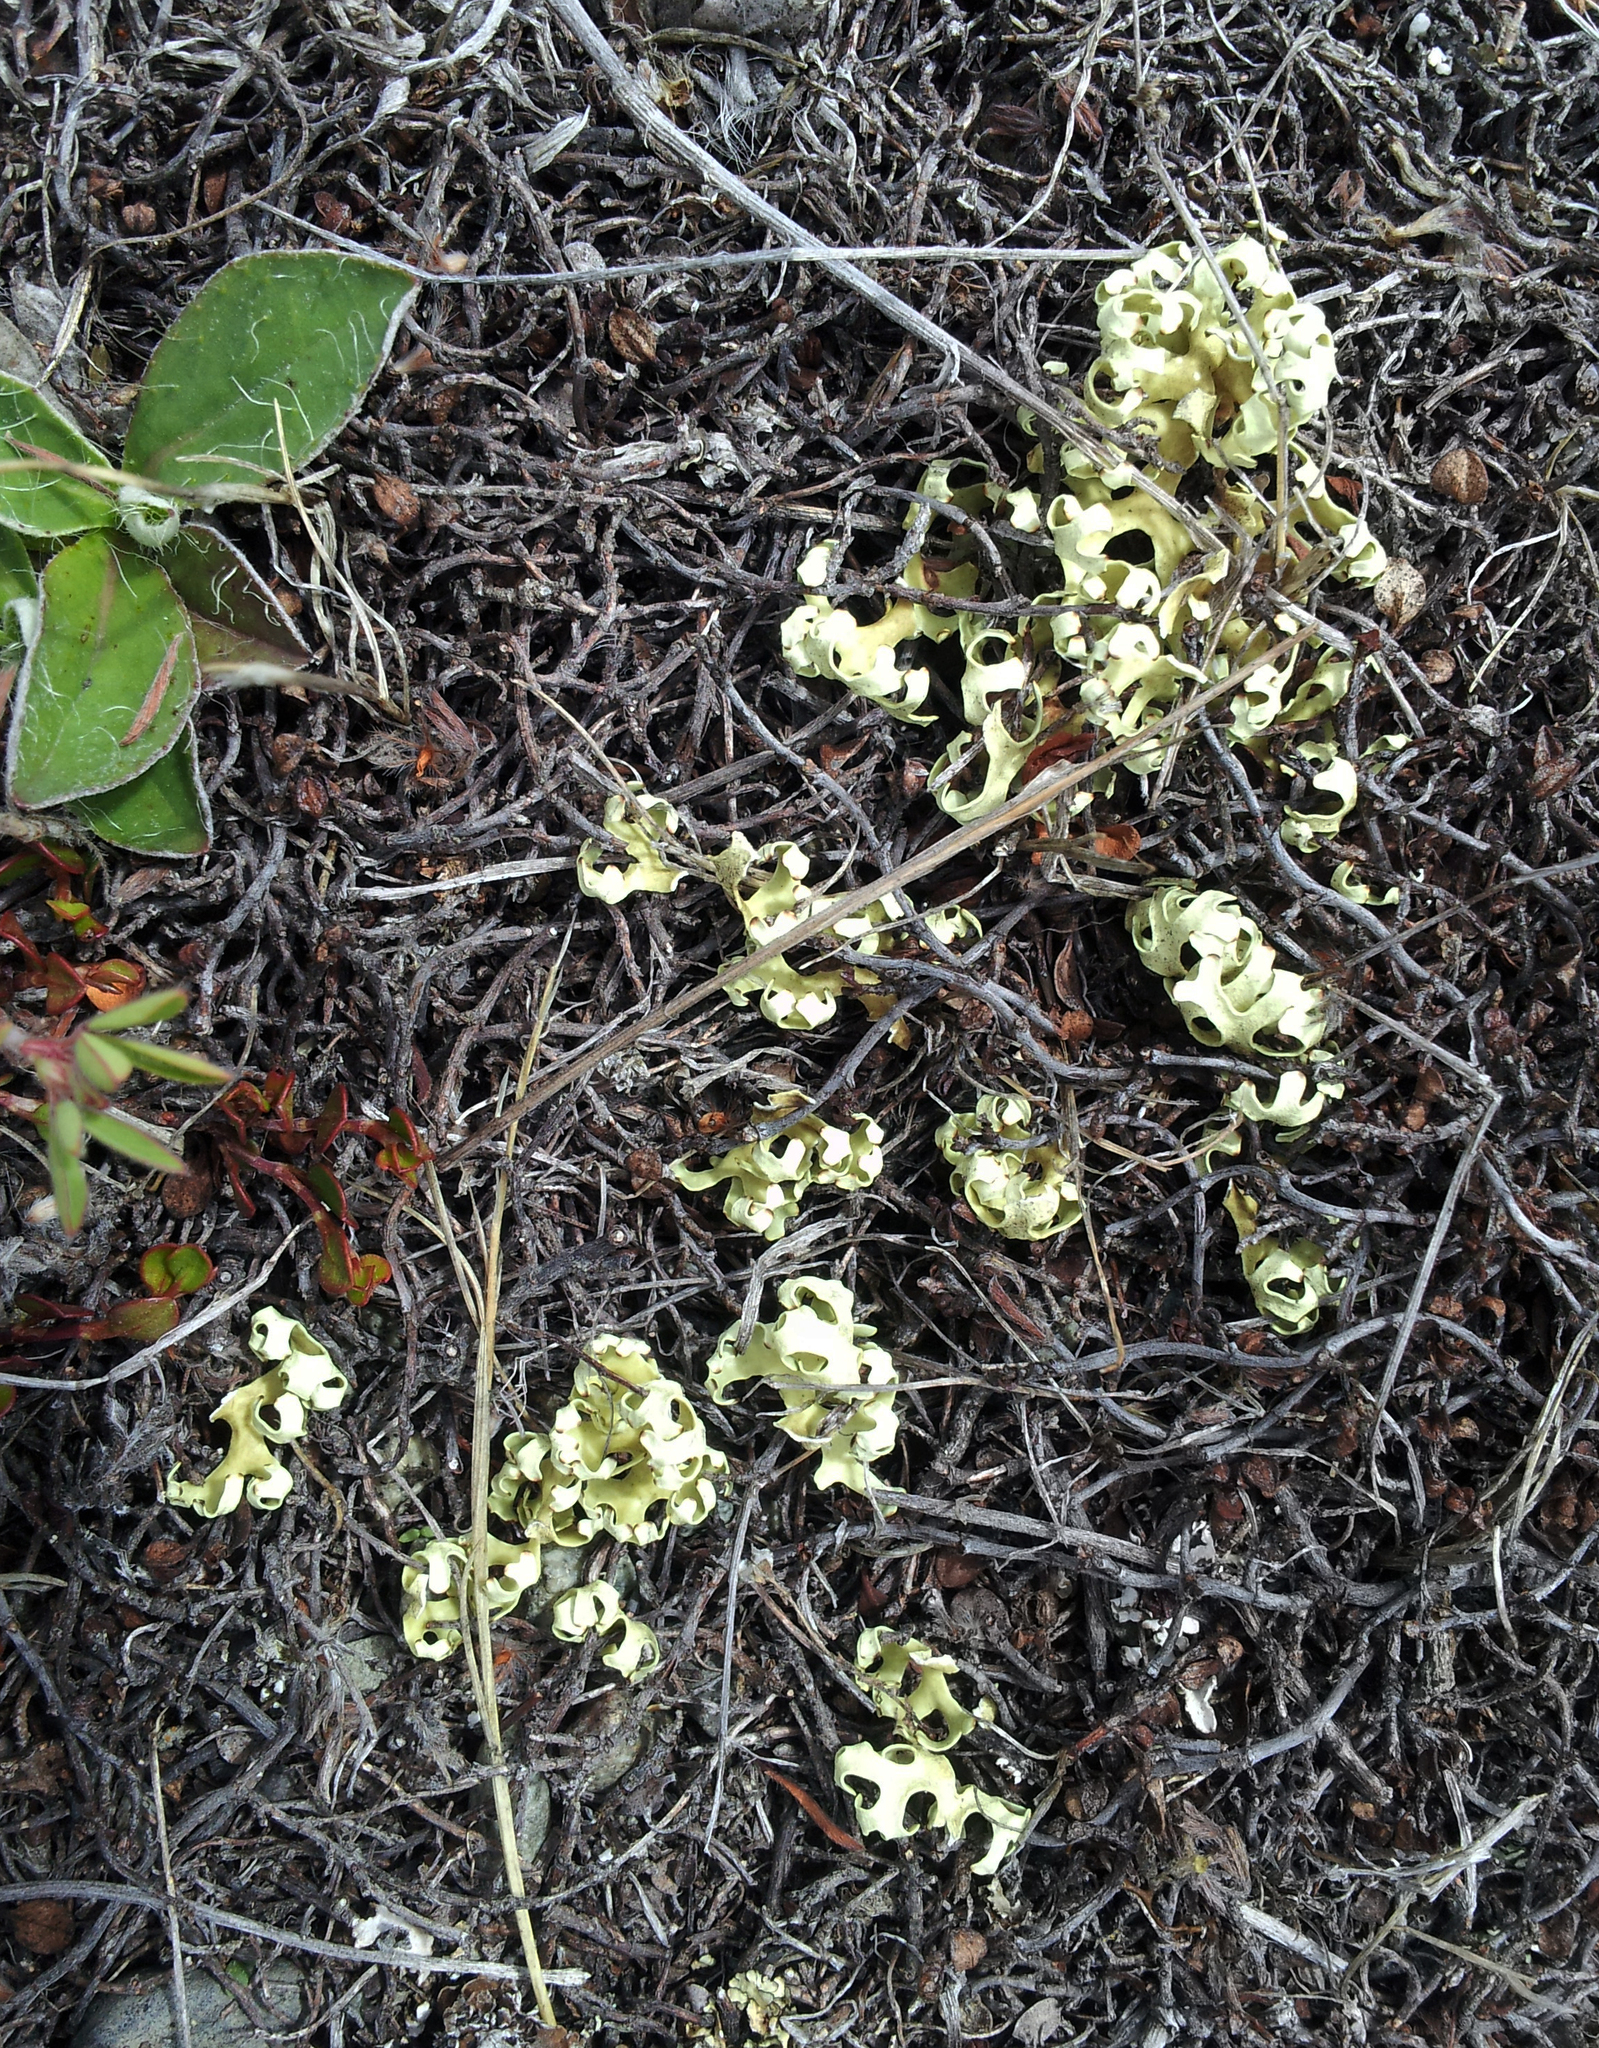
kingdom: Fungi
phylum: Ascomycota
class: Lecanoromycetes
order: Lecanorales
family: Parmeliaceae
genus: Xanthoparmelia
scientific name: Xanthoparmelia semiviridis
